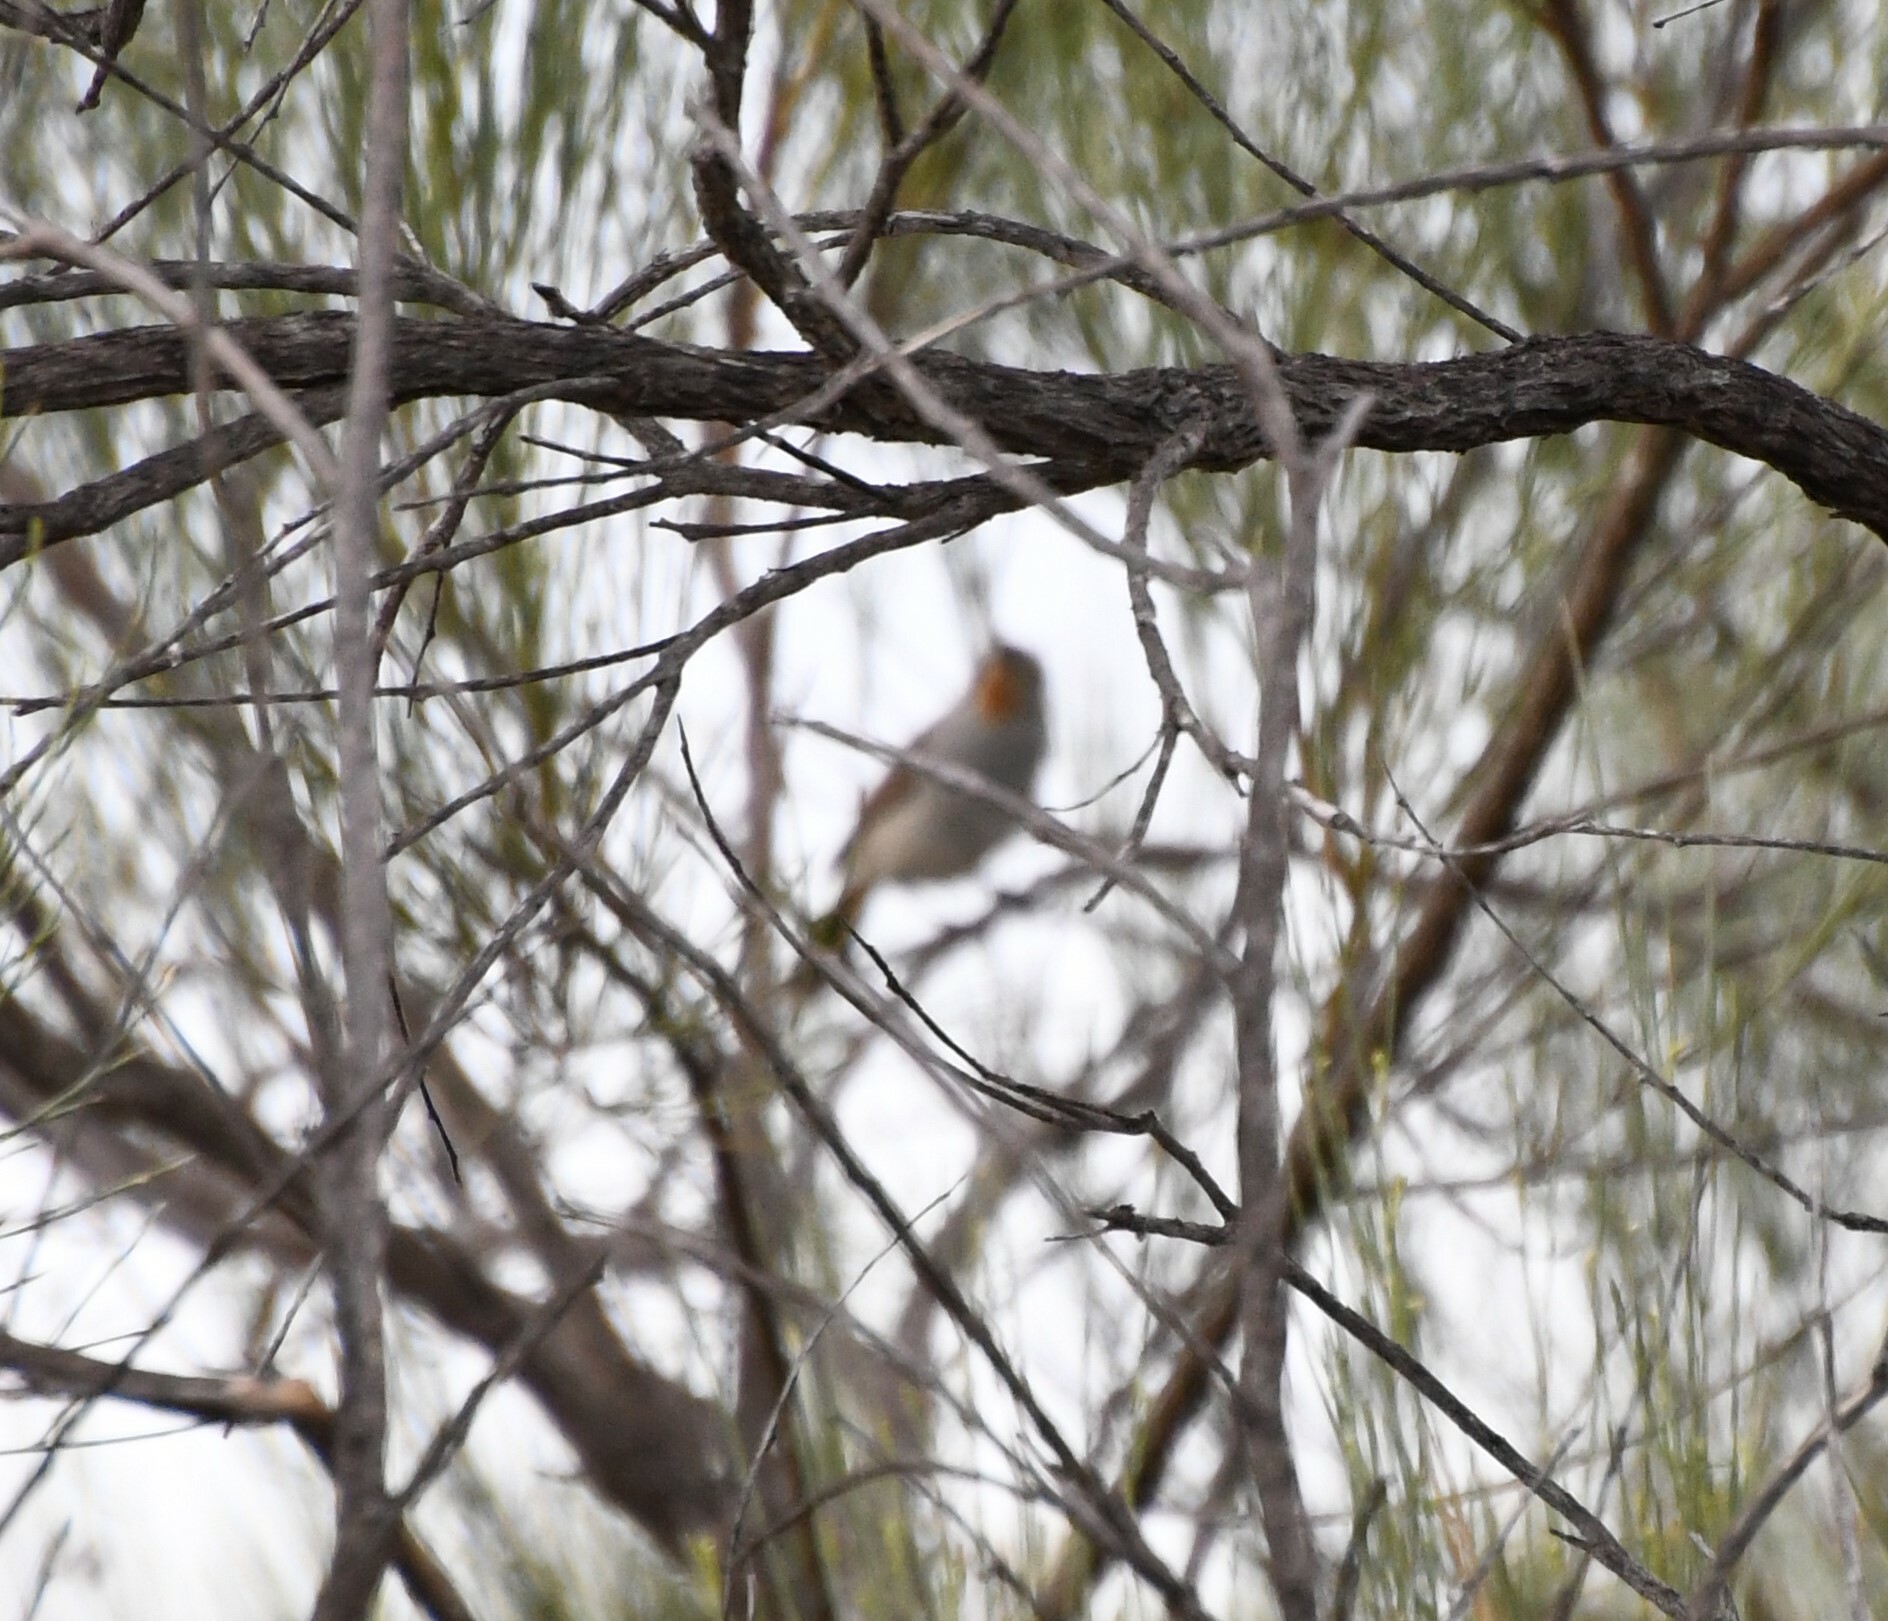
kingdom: Animalia
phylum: Chordata
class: Aves
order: Passeriformes
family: Acanthizidae
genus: Pyrrholaemus
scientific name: Pyrrholaemus brunneus
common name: Redthroat
